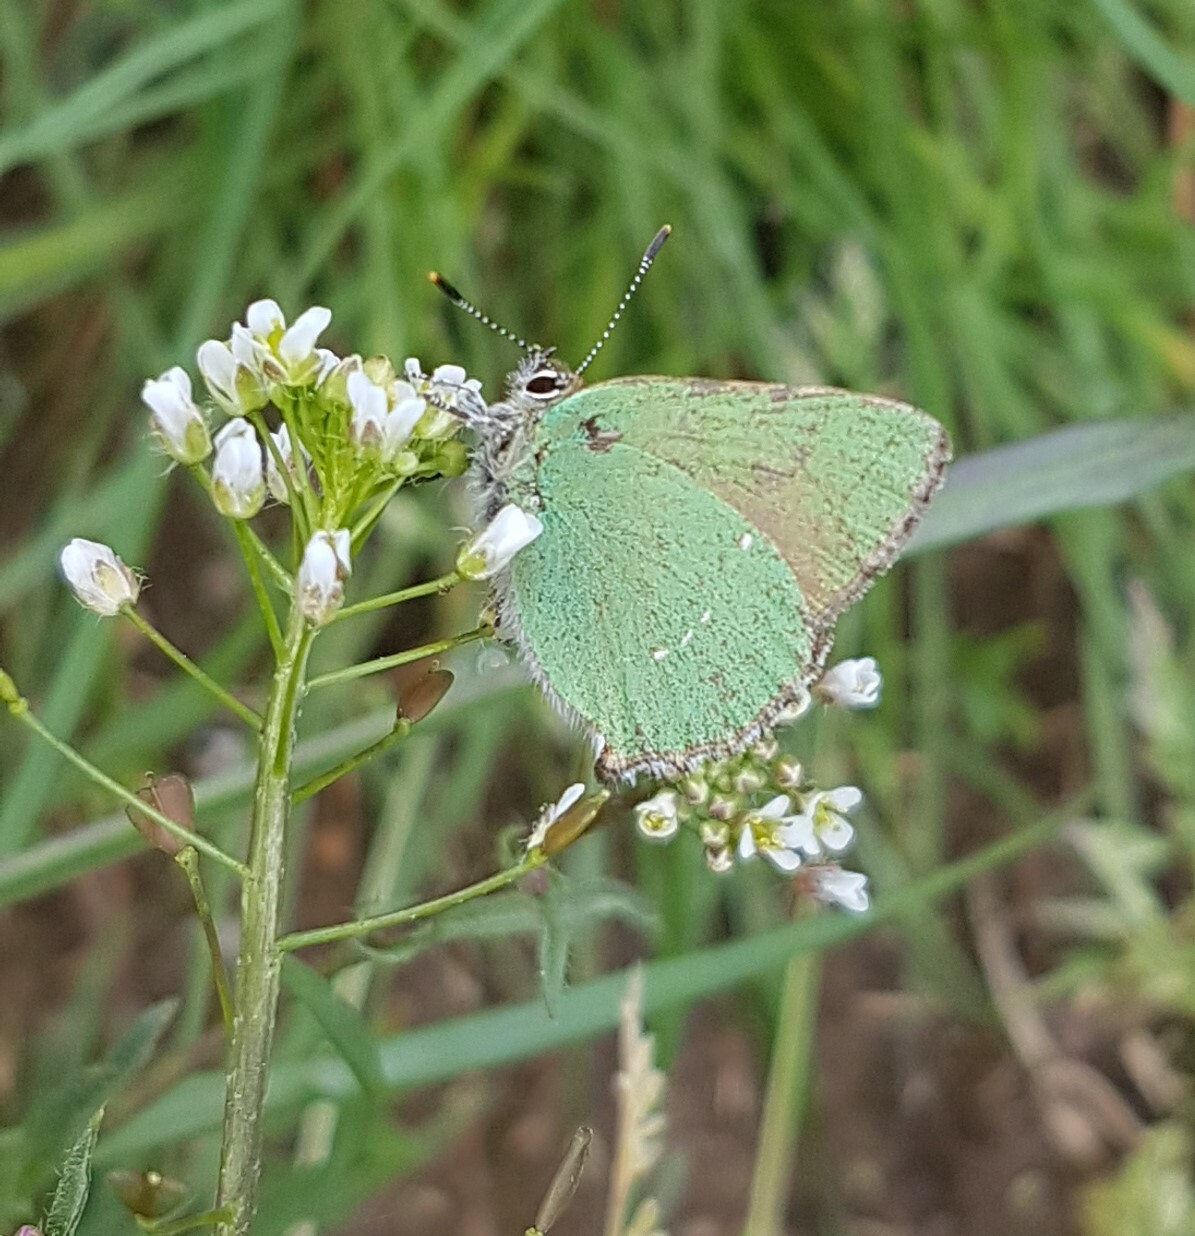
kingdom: Animalia
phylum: Arthropoda
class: Insecta
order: Lepidoptera
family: Lycaenidae
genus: Callophrys
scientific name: Callophrys rubi
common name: Green hairstreak
